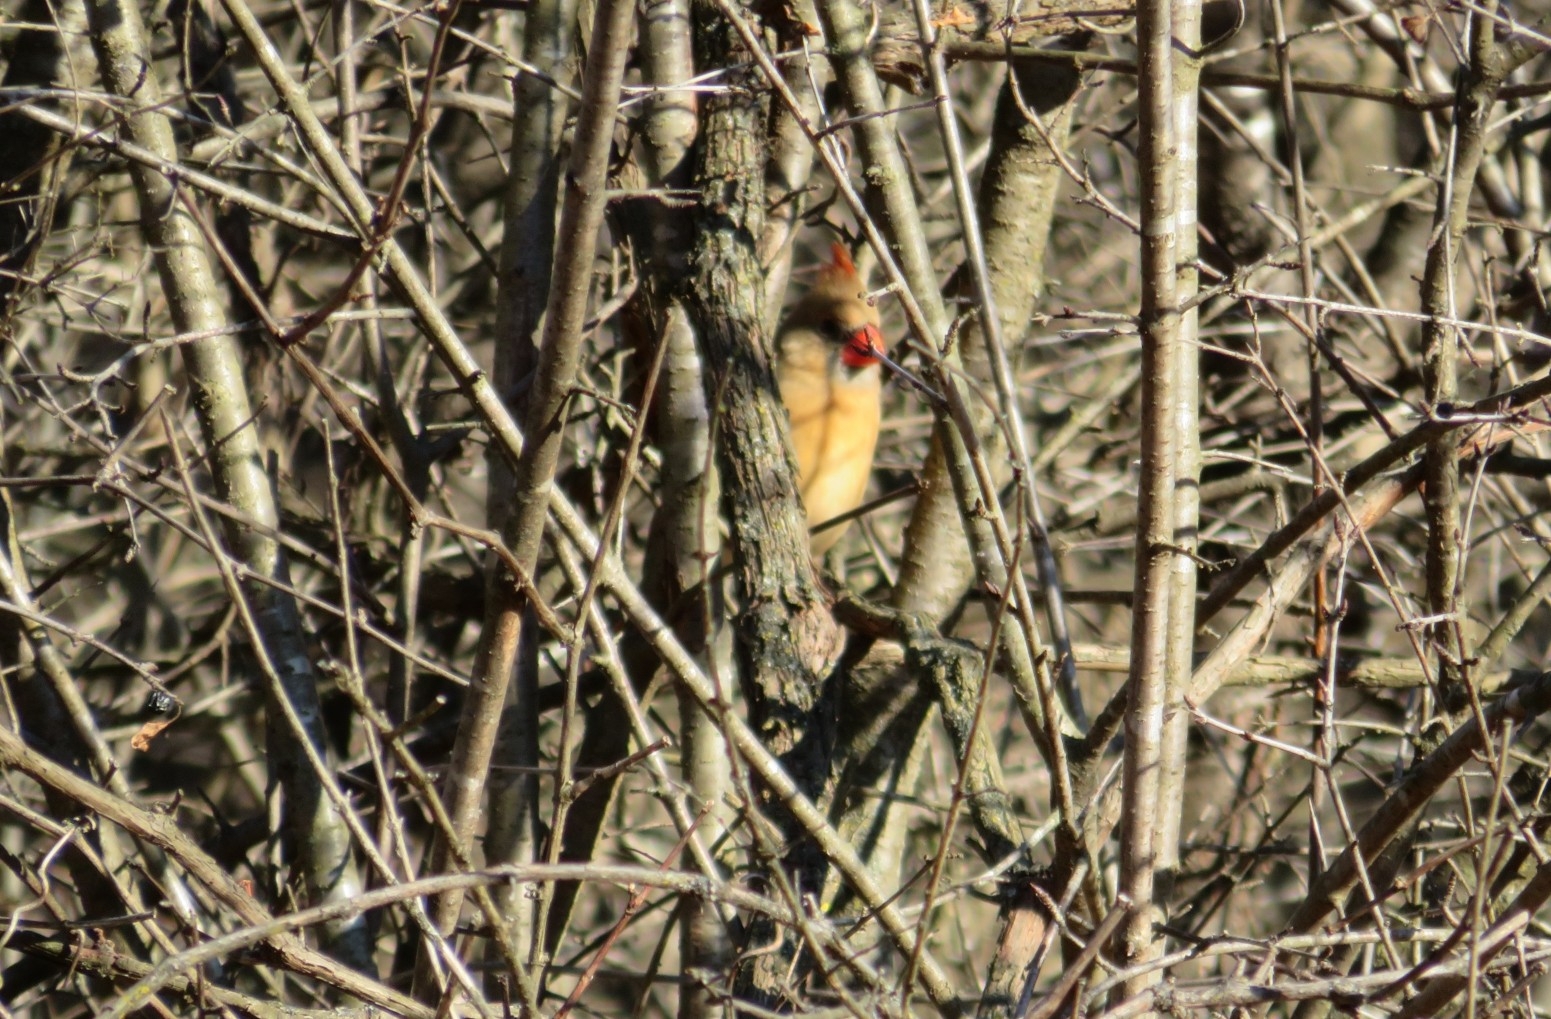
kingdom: Animalia
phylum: Chordata
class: Aves
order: Passeriformes
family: Cardinalidae
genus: Cardinalis
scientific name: Cardinalis cardinalis
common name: Northern cardinal
